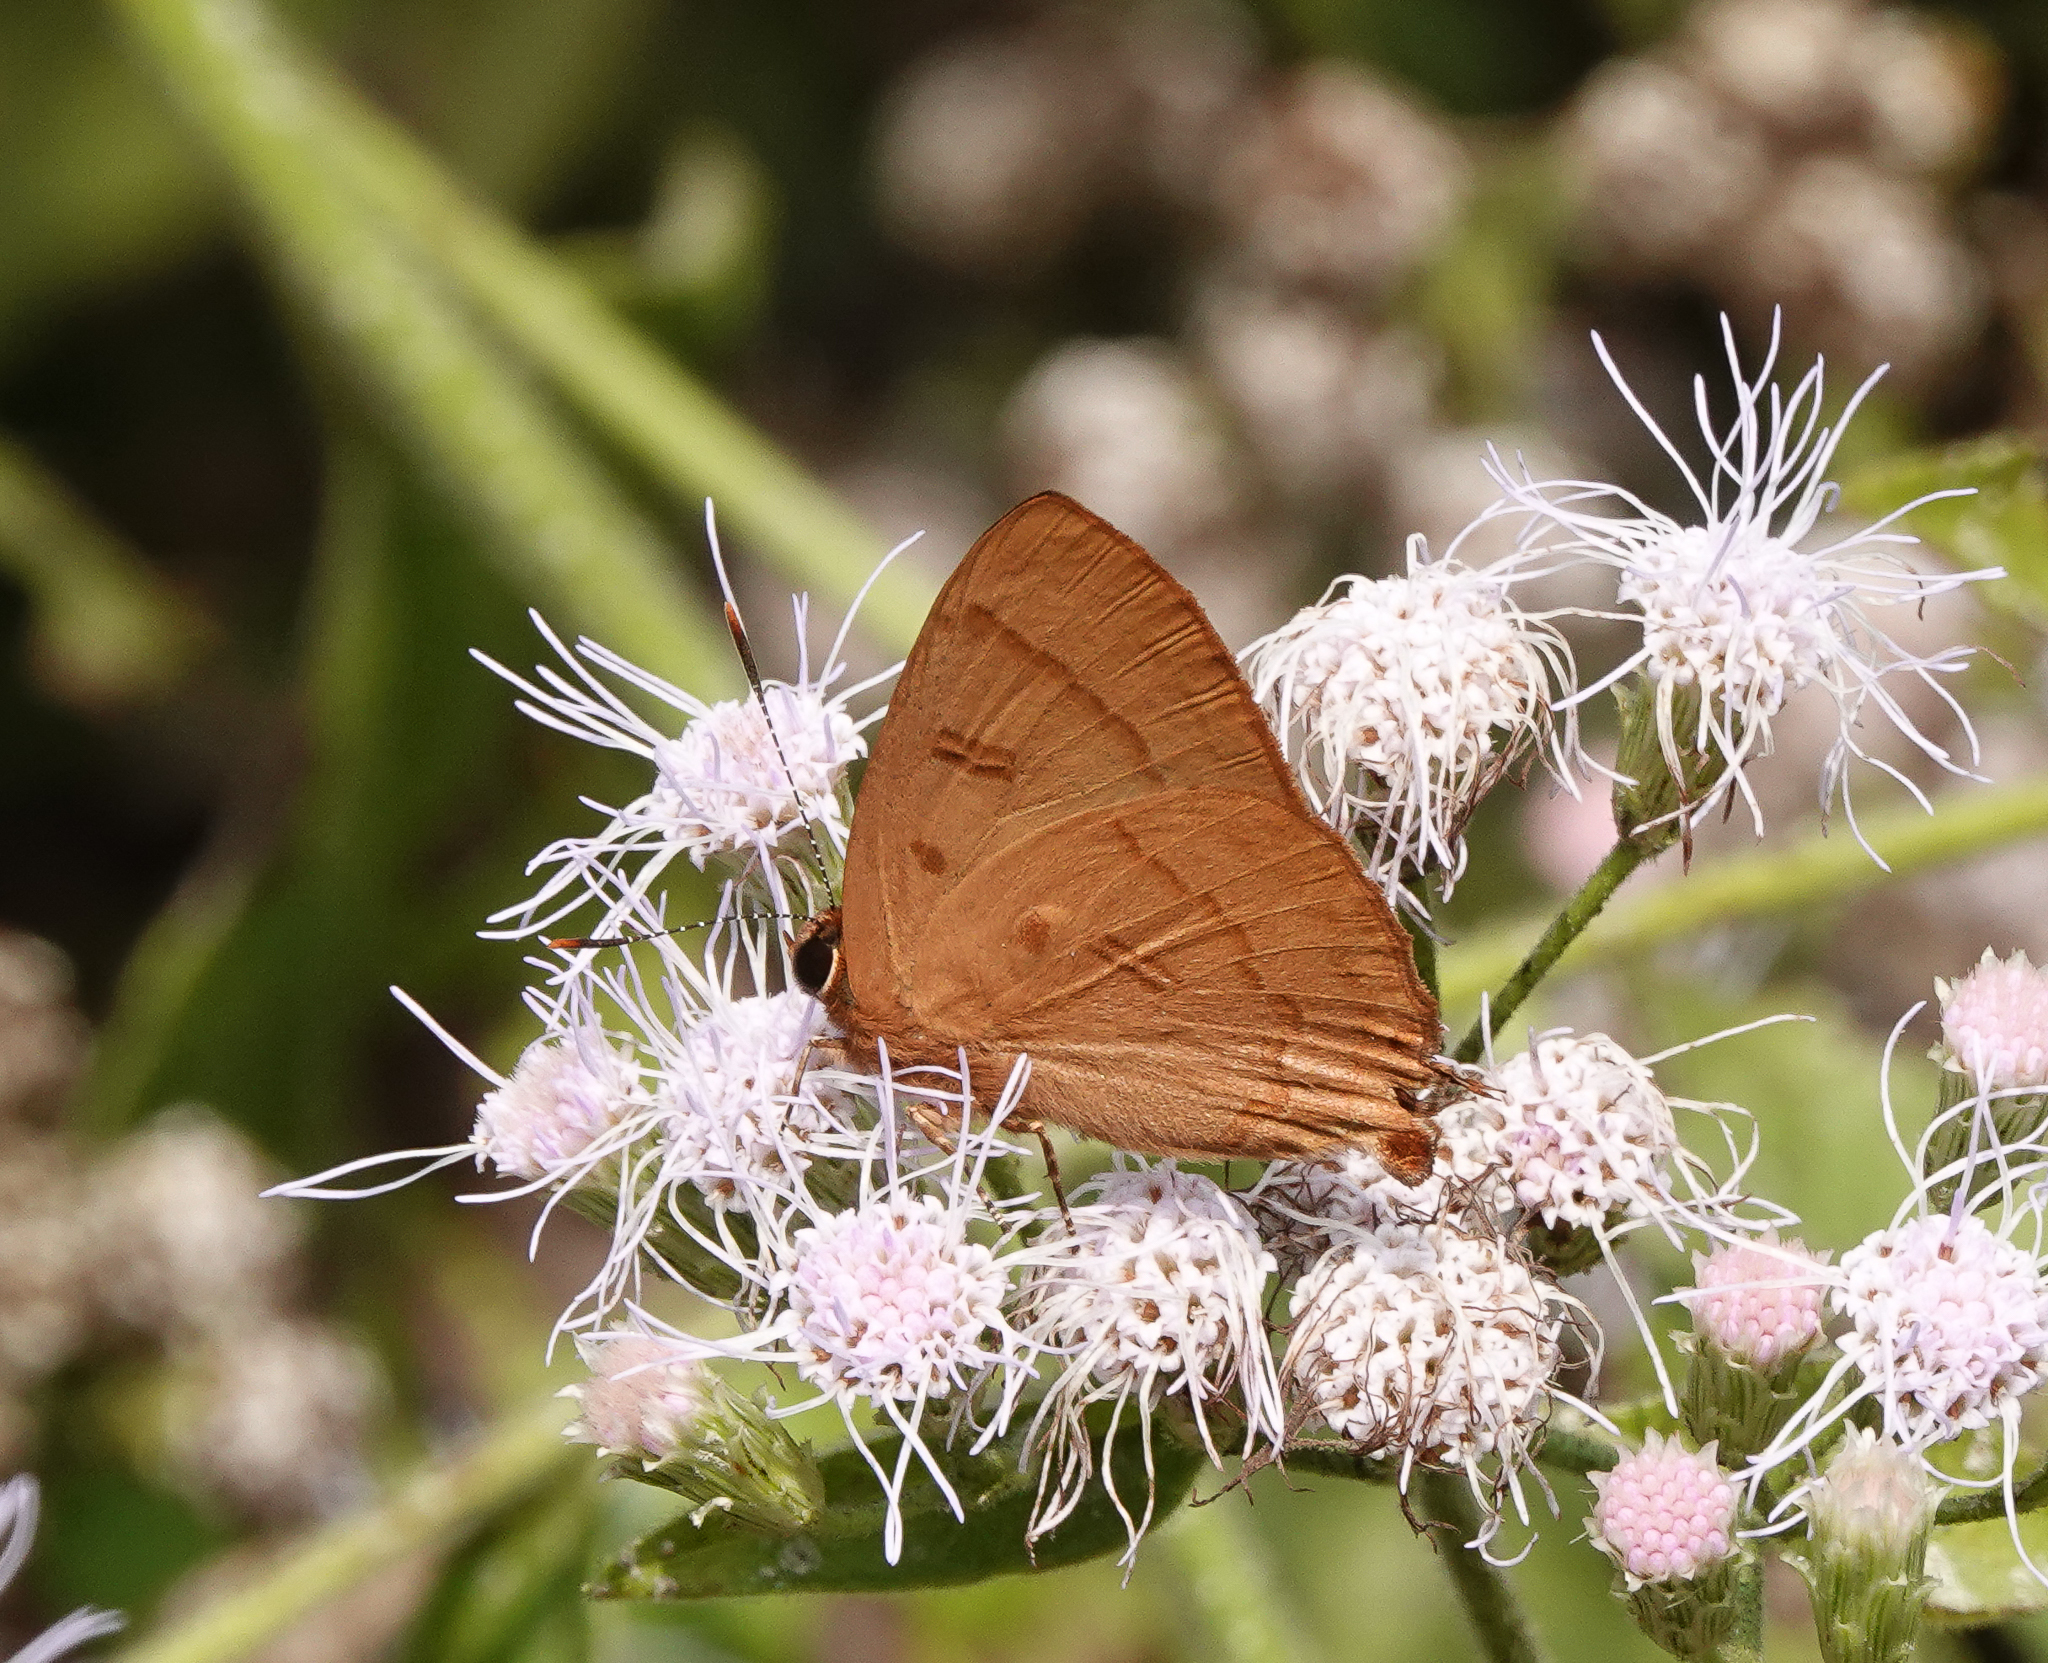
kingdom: Animalia
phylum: Arthropoda
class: Insecta
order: Lepidoptera
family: Lycaenidae
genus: Rapala
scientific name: Rapala pheretima
